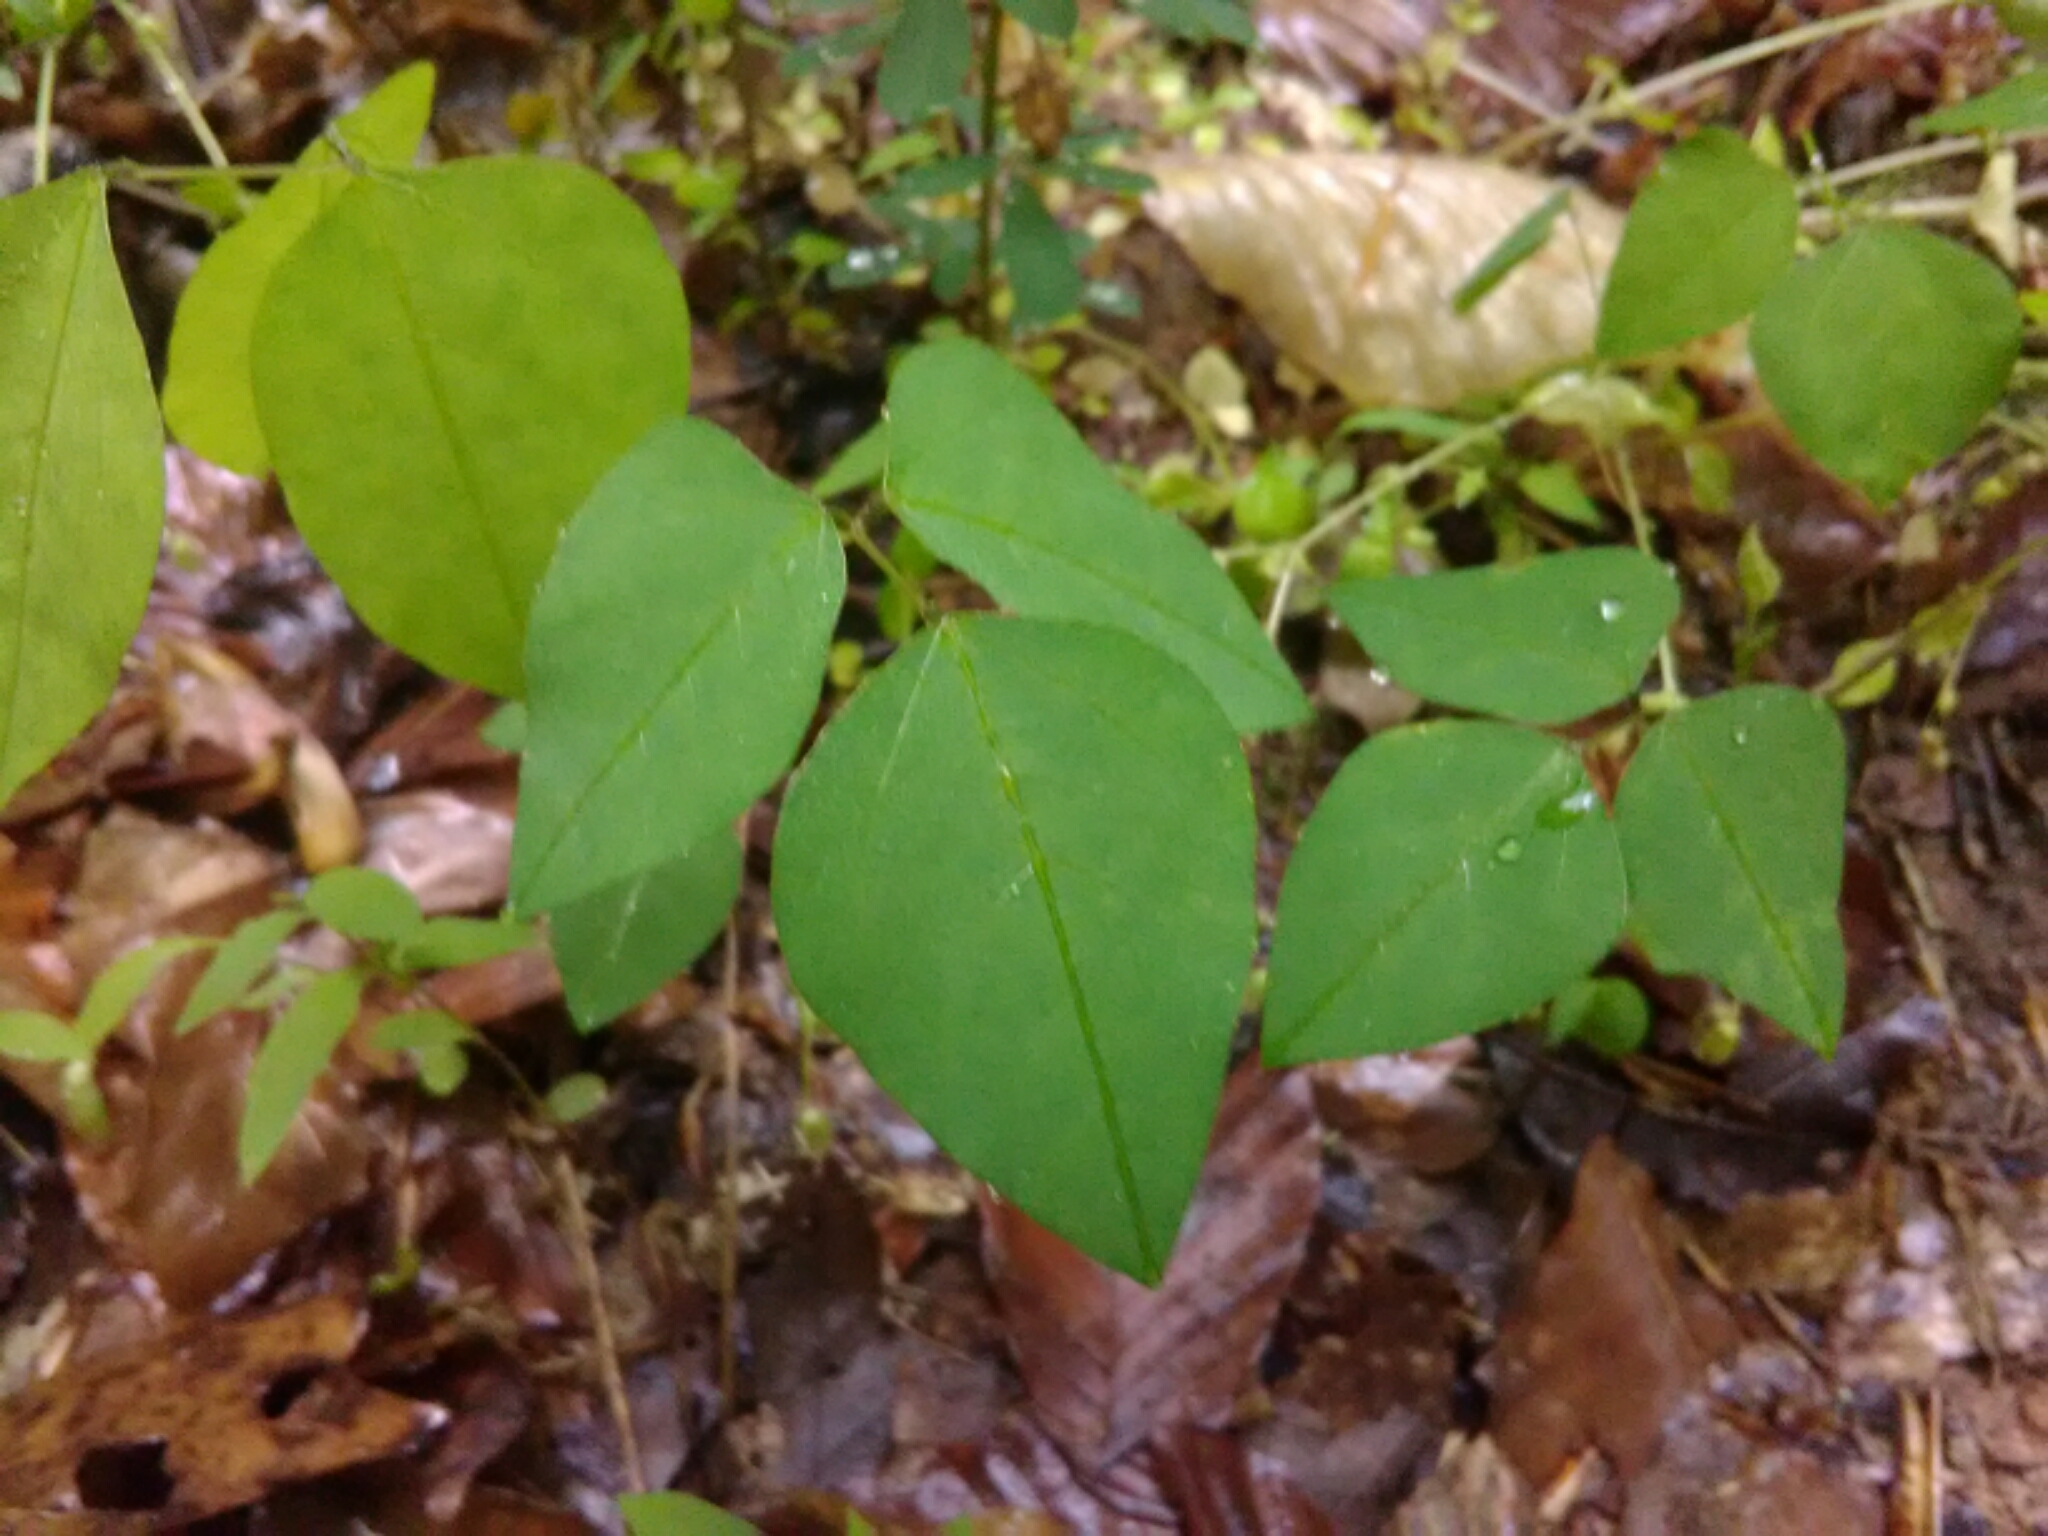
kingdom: Plantae
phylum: Tracheophyta
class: Magnoliopsida
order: Fabales
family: Fabaceae
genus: Amphicarpaea
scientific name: Amphicarpaea bracteata
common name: American hog peanut
